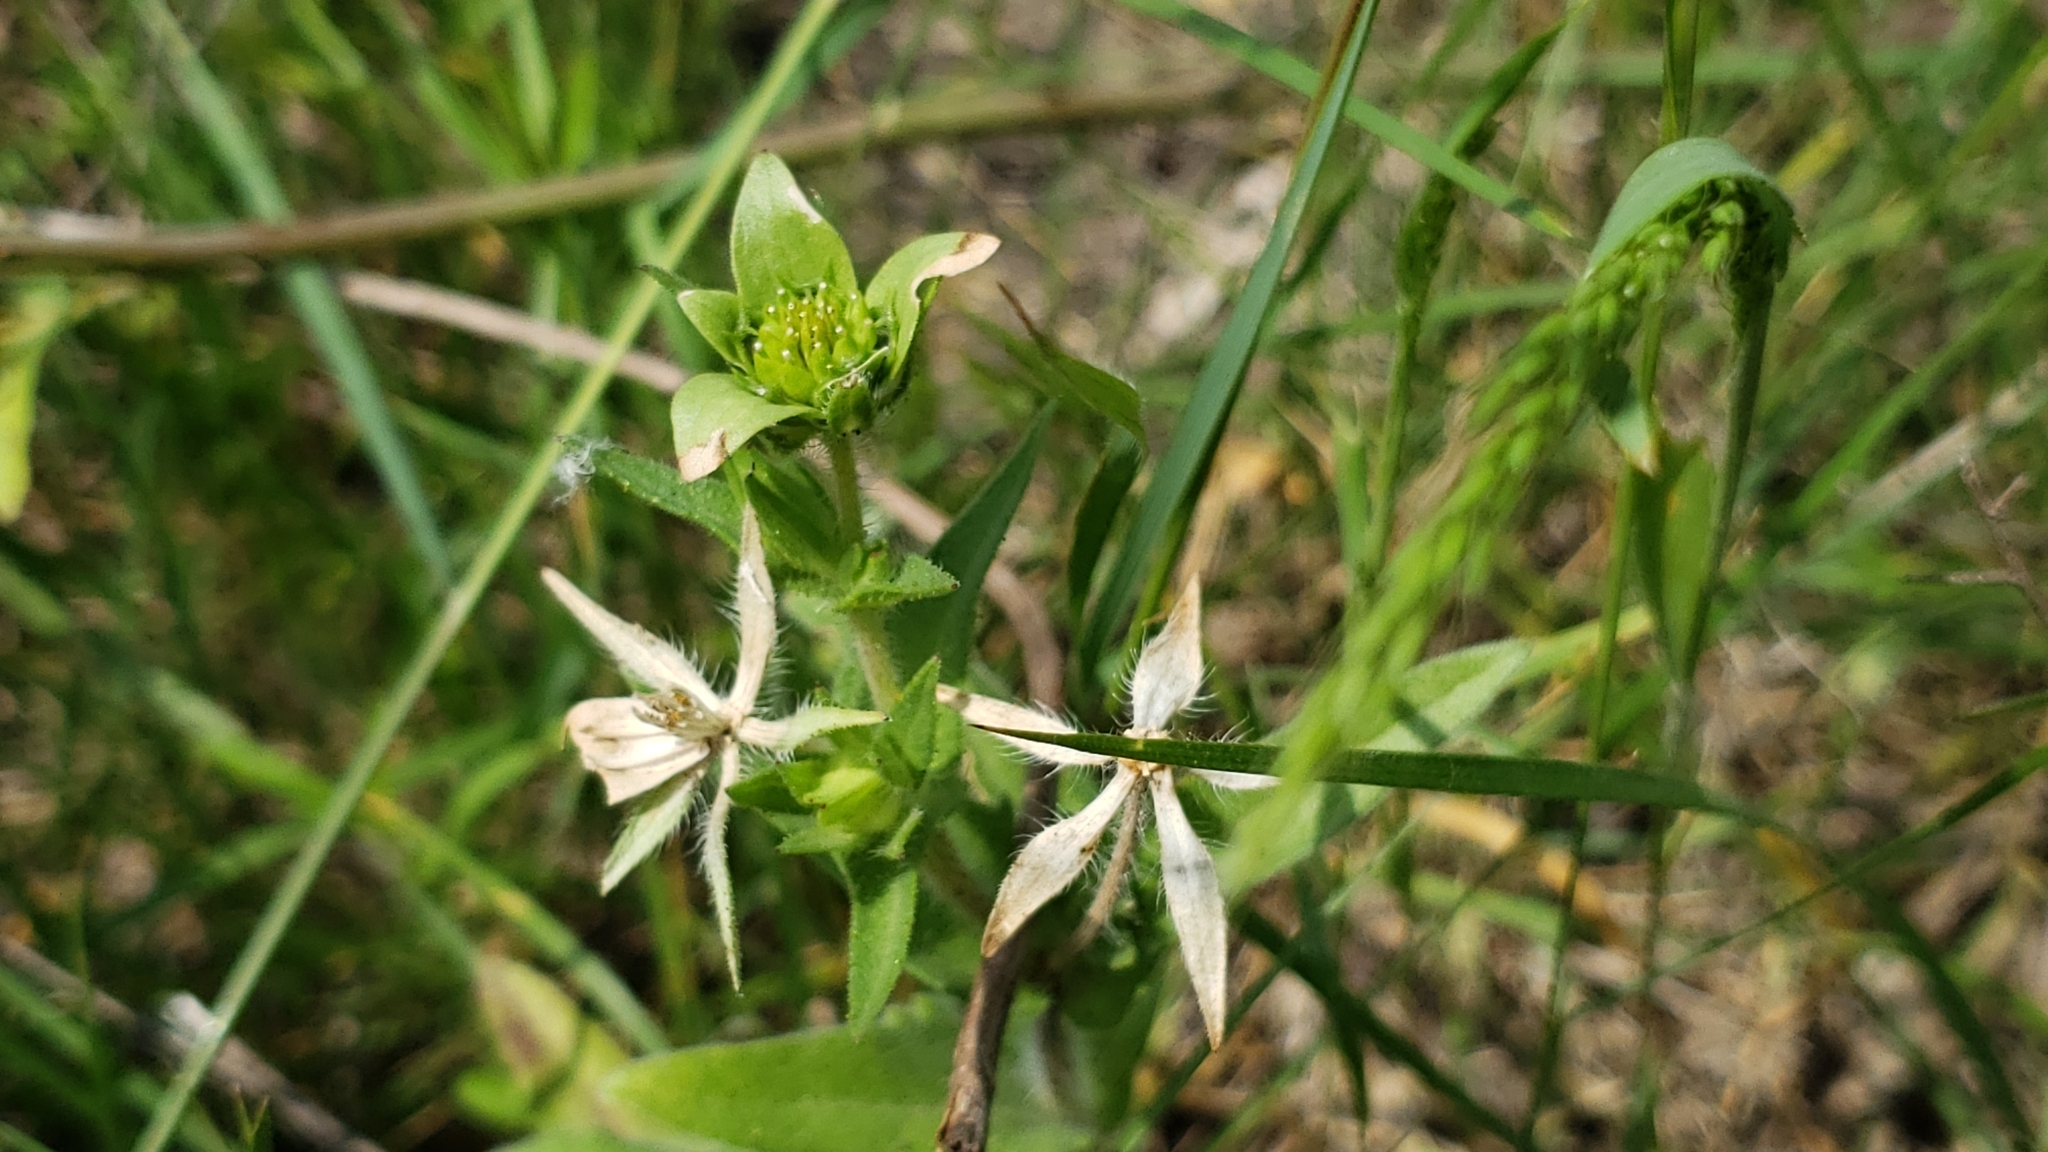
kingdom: Plantae
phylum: Tracheophyta
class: Magnoliopsida
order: Asterales
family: Asteraceae
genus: Lindheimera
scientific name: Lindheimera texana
